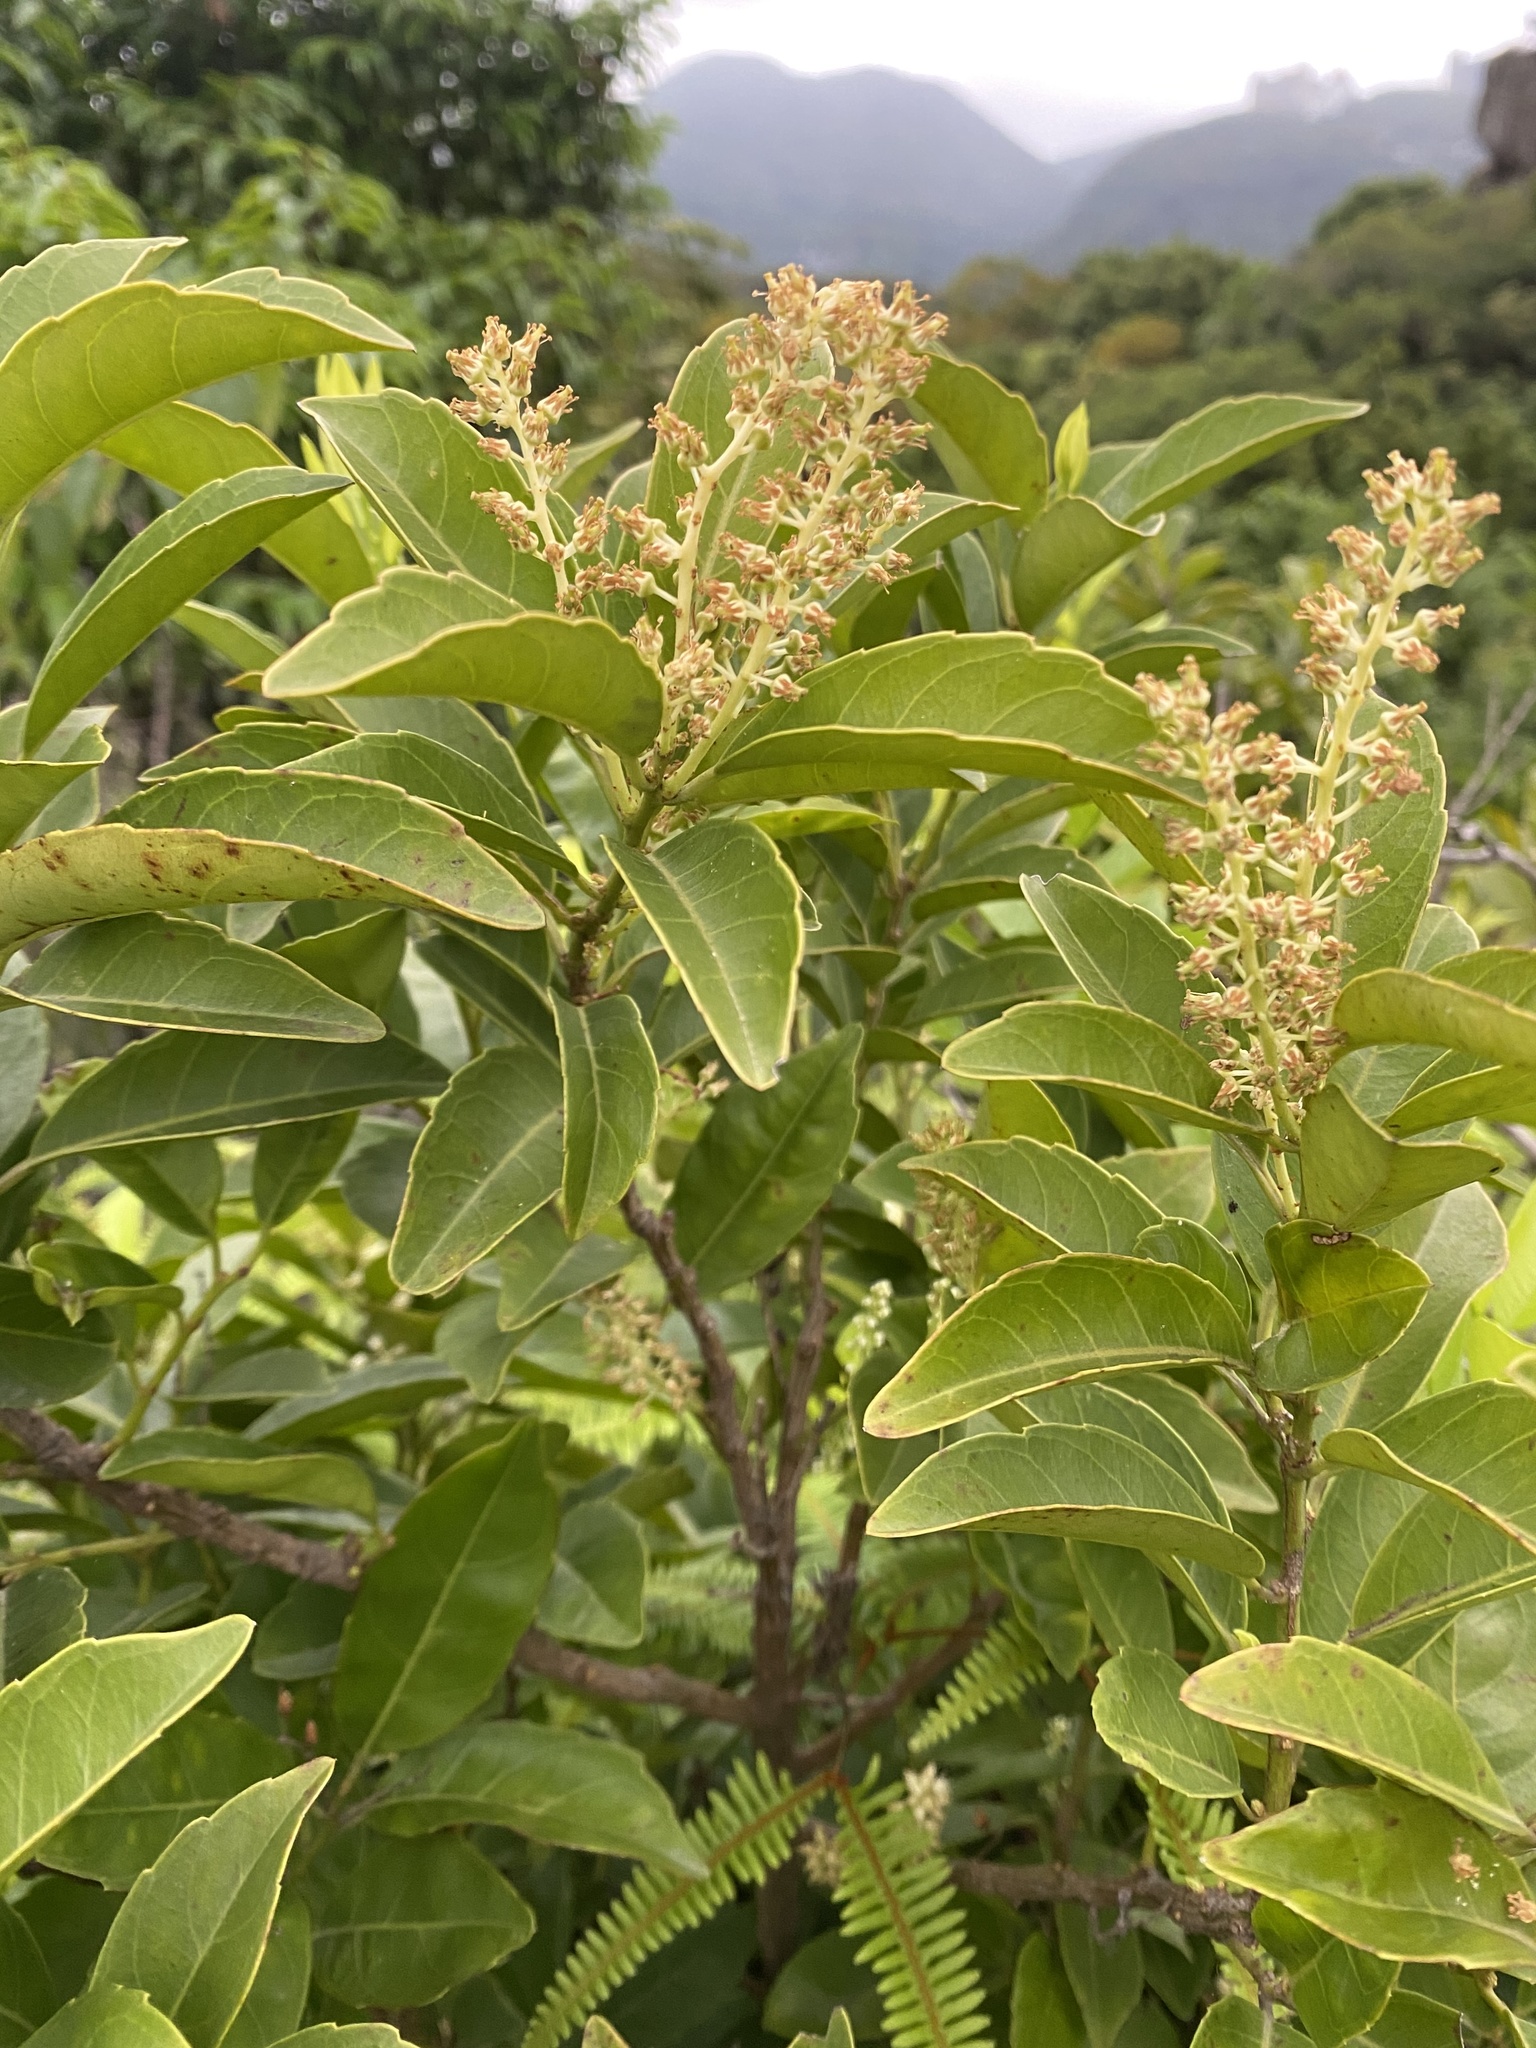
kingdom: Plantae
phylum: Tracheophyta
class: Magnoliopsida
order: Saxifragales
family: Iteaceae
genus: Itea
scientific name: Itea oldhamii
